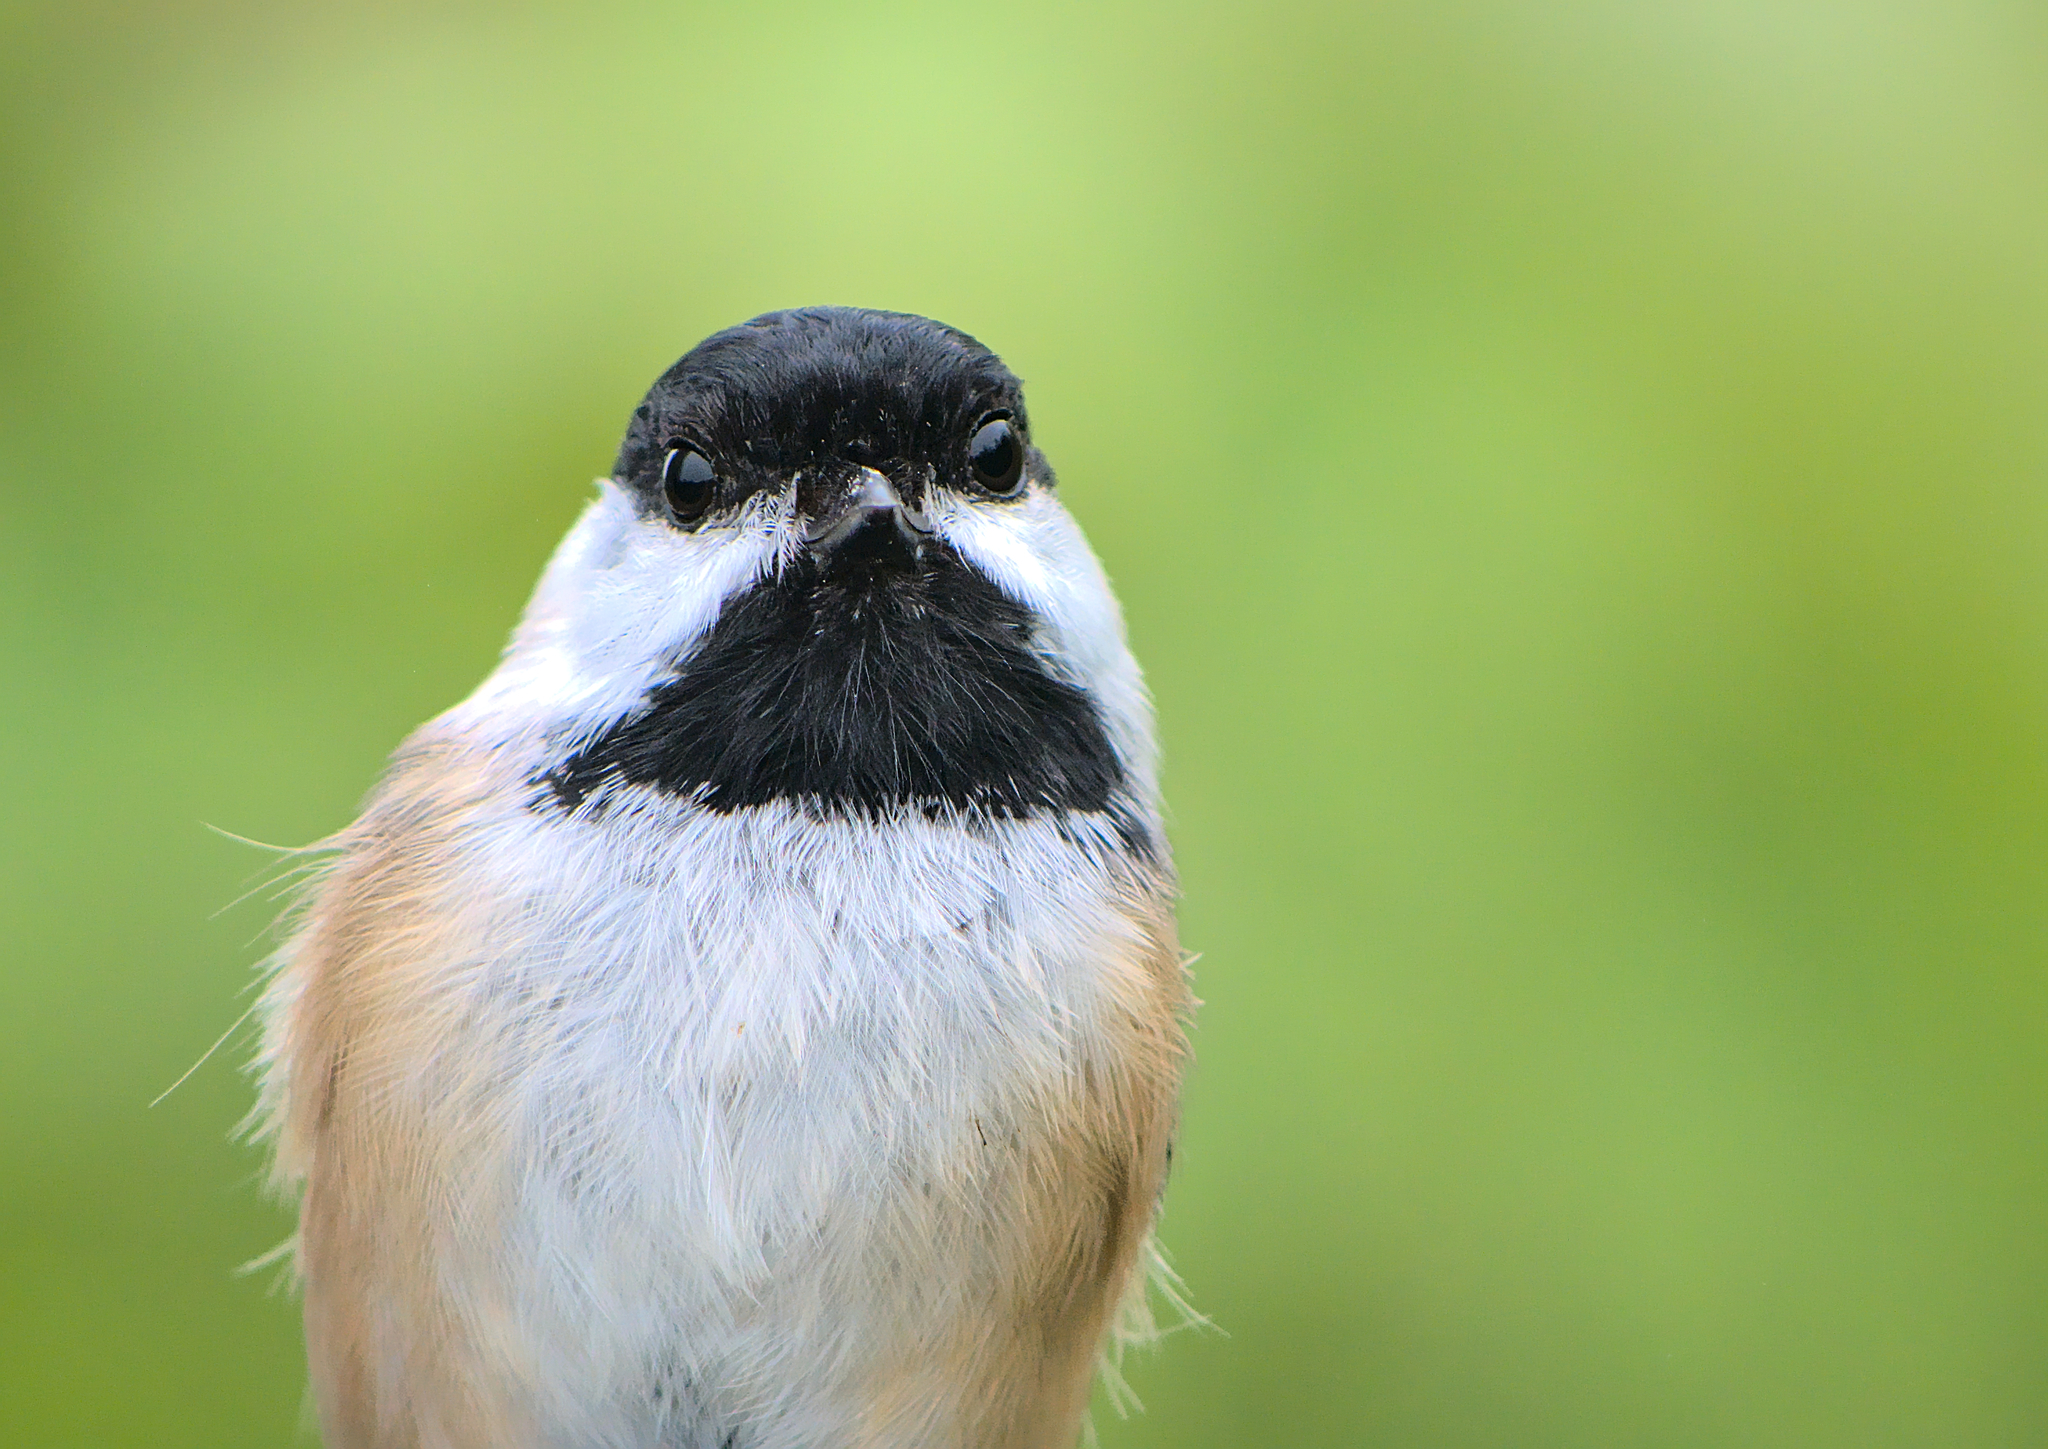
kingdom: Animalia
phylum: Chordata
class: Aves
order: Passeriformes
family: Paridae
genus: Poecile
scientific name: Poecile atricapillus
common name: Black-capped chickadee
